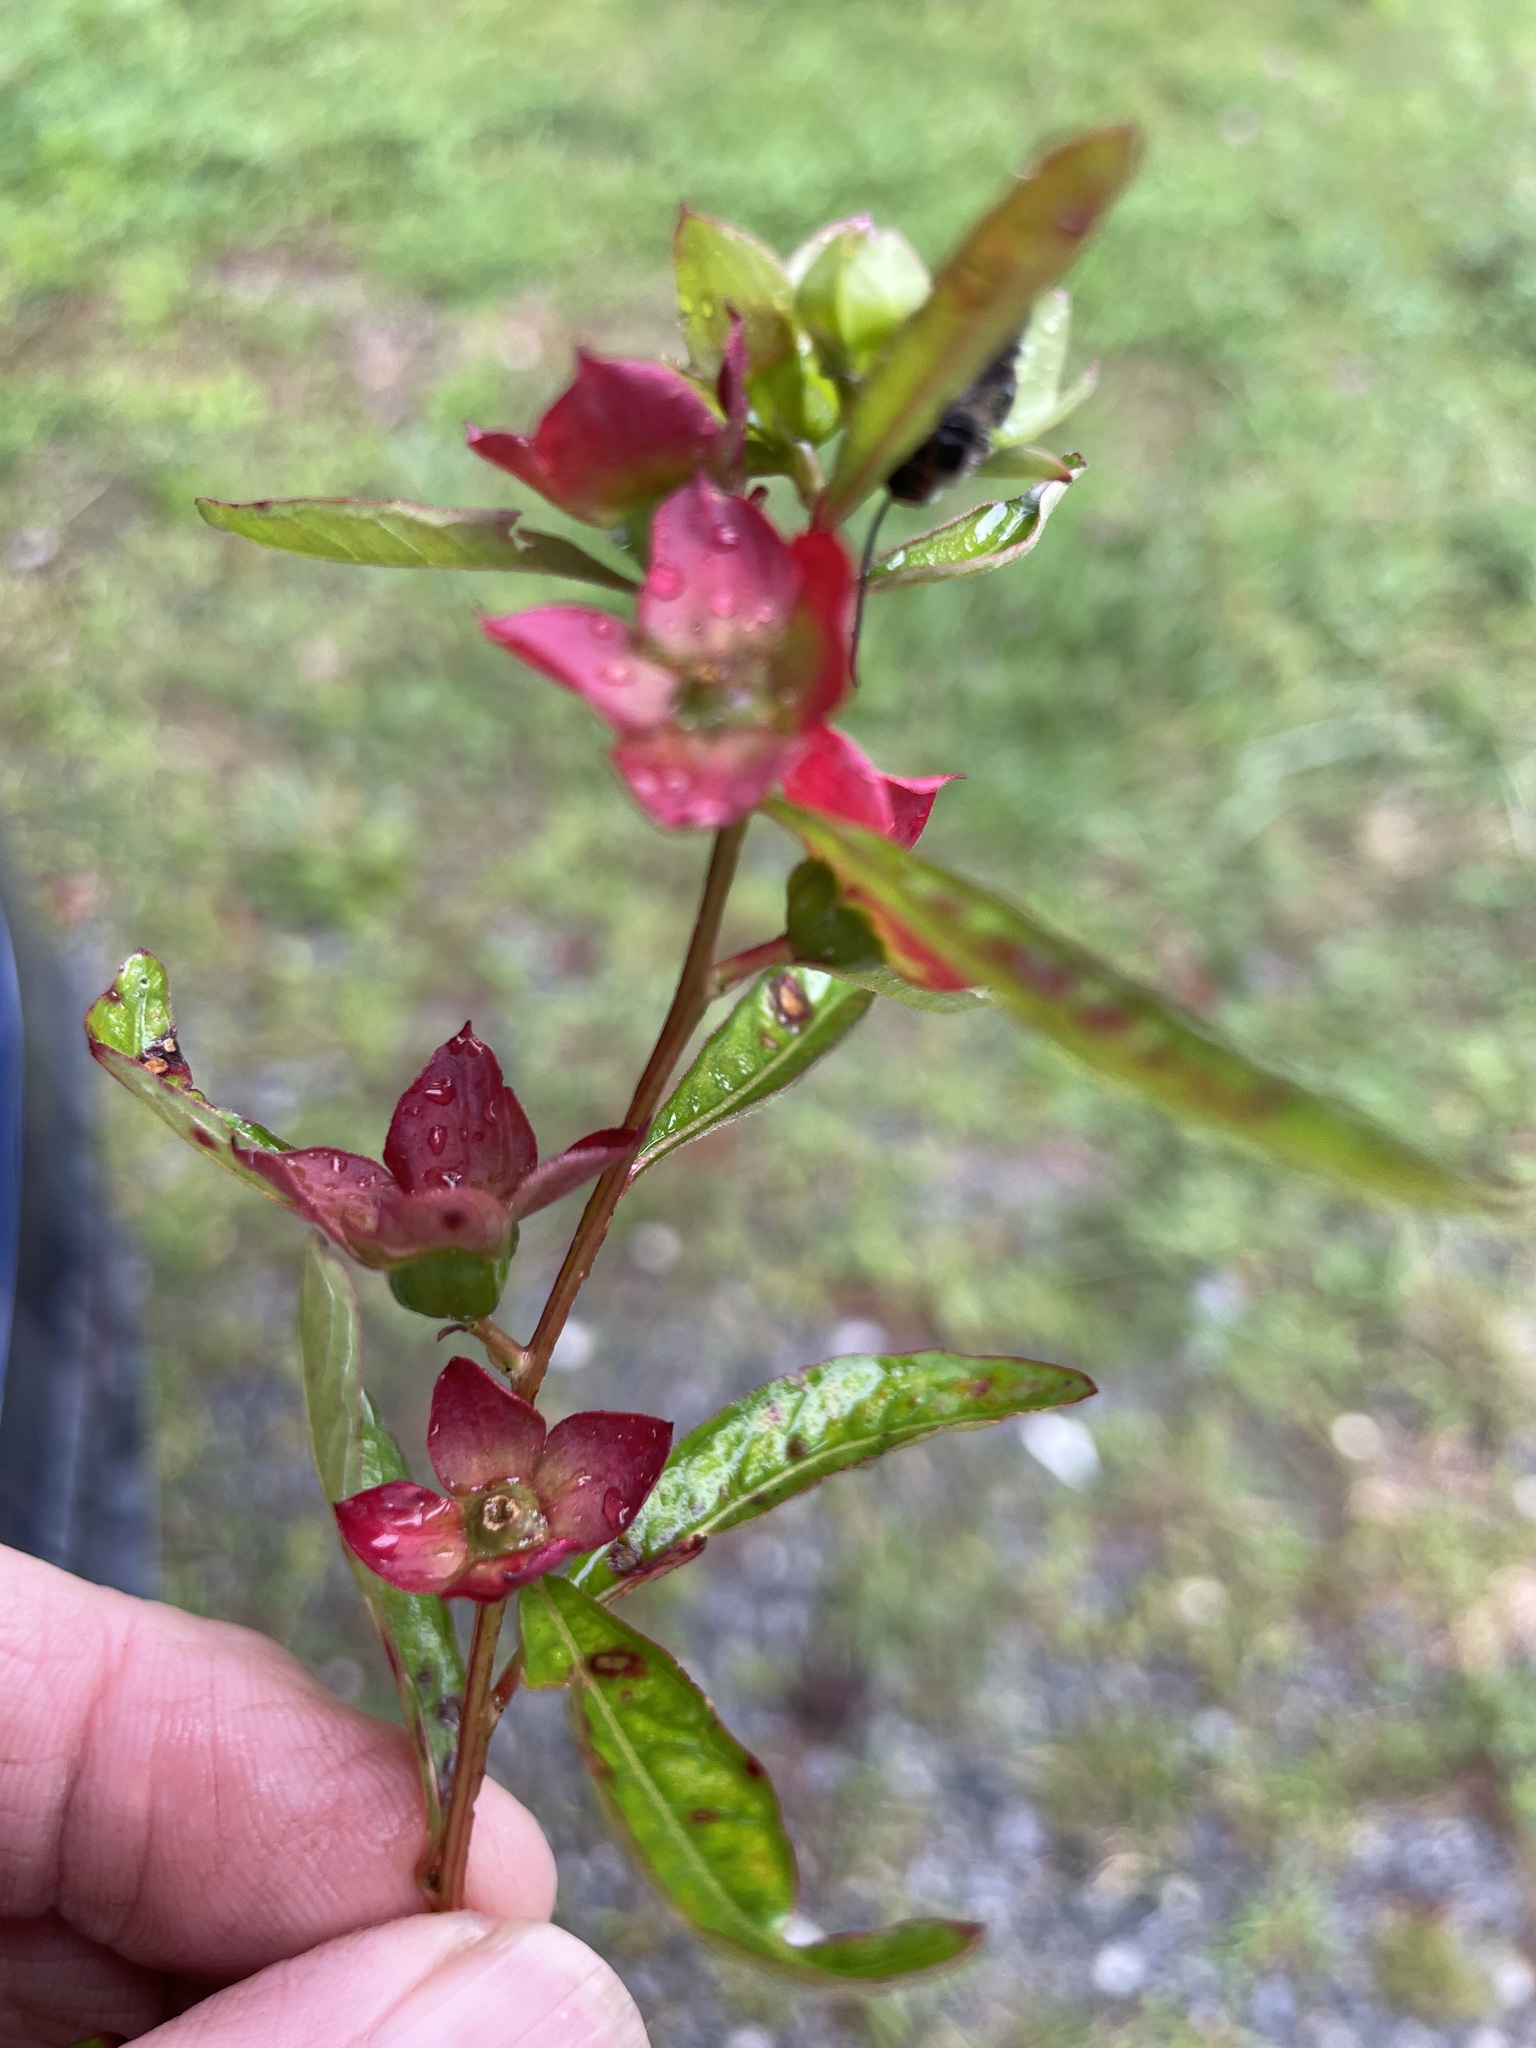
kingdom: Plantae
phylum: Tracheophyta
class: Magnoliopsida
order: Myrtales
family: Onagraceae
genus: Ludwigia
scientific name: Ludwigia alternifolia
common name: Rattlebox
